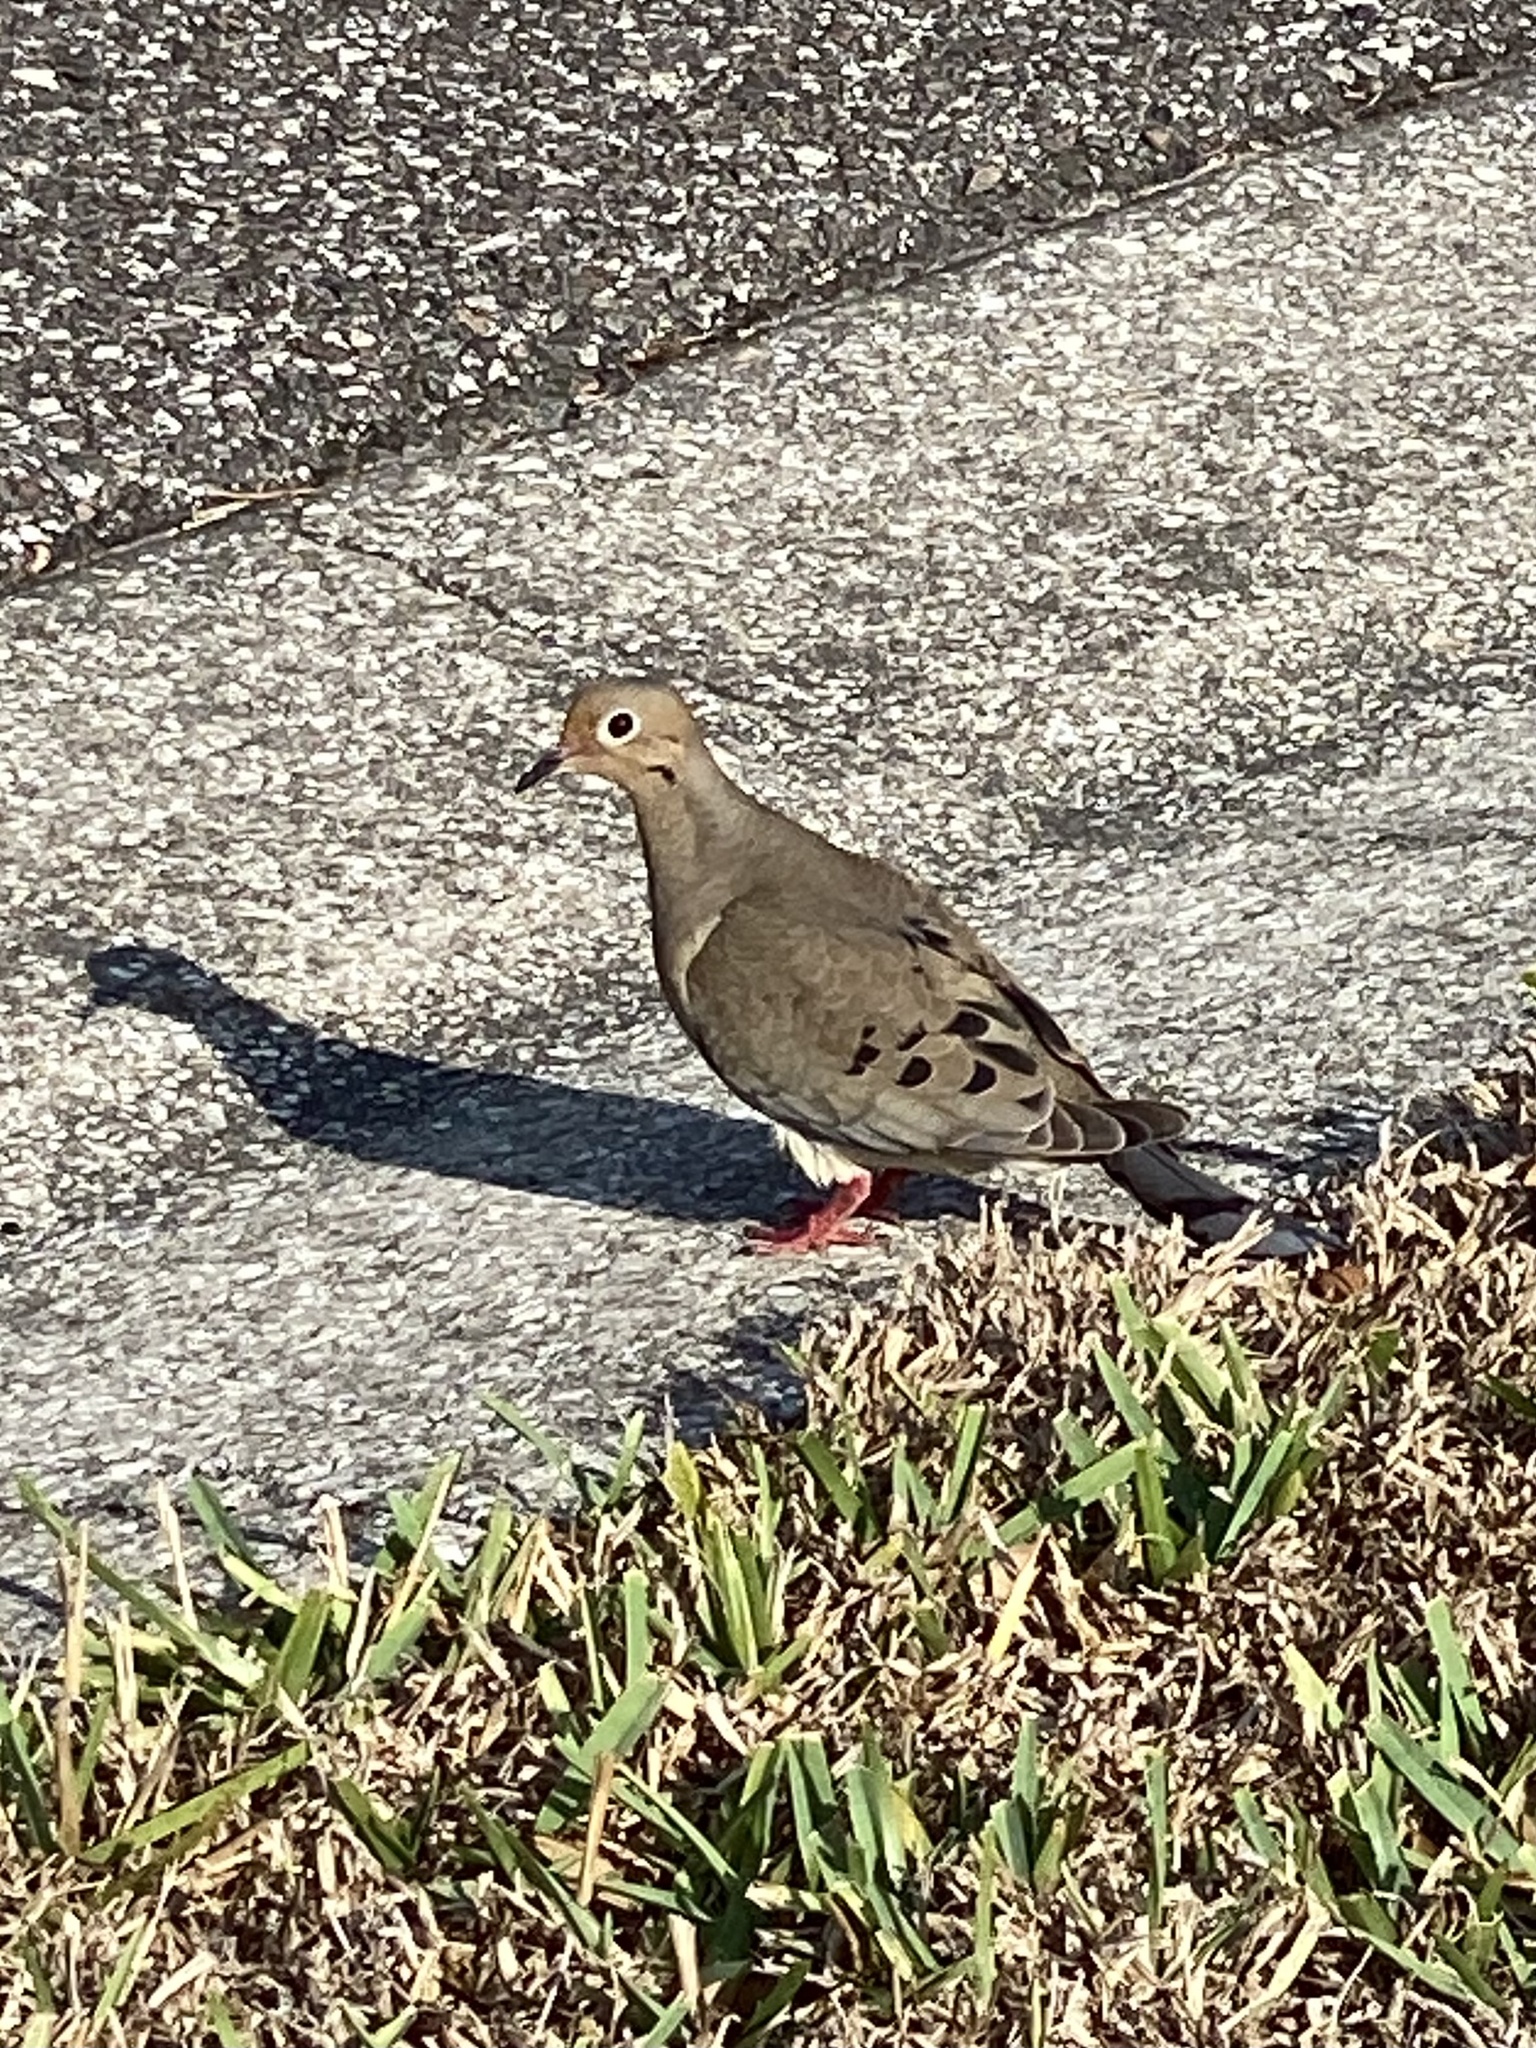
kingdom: Animalia
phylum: Chordata
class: Aves
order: Columbiformes
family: Columbidae
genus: Zenaida
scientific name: Zenaida macroura
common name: Mourning dove
